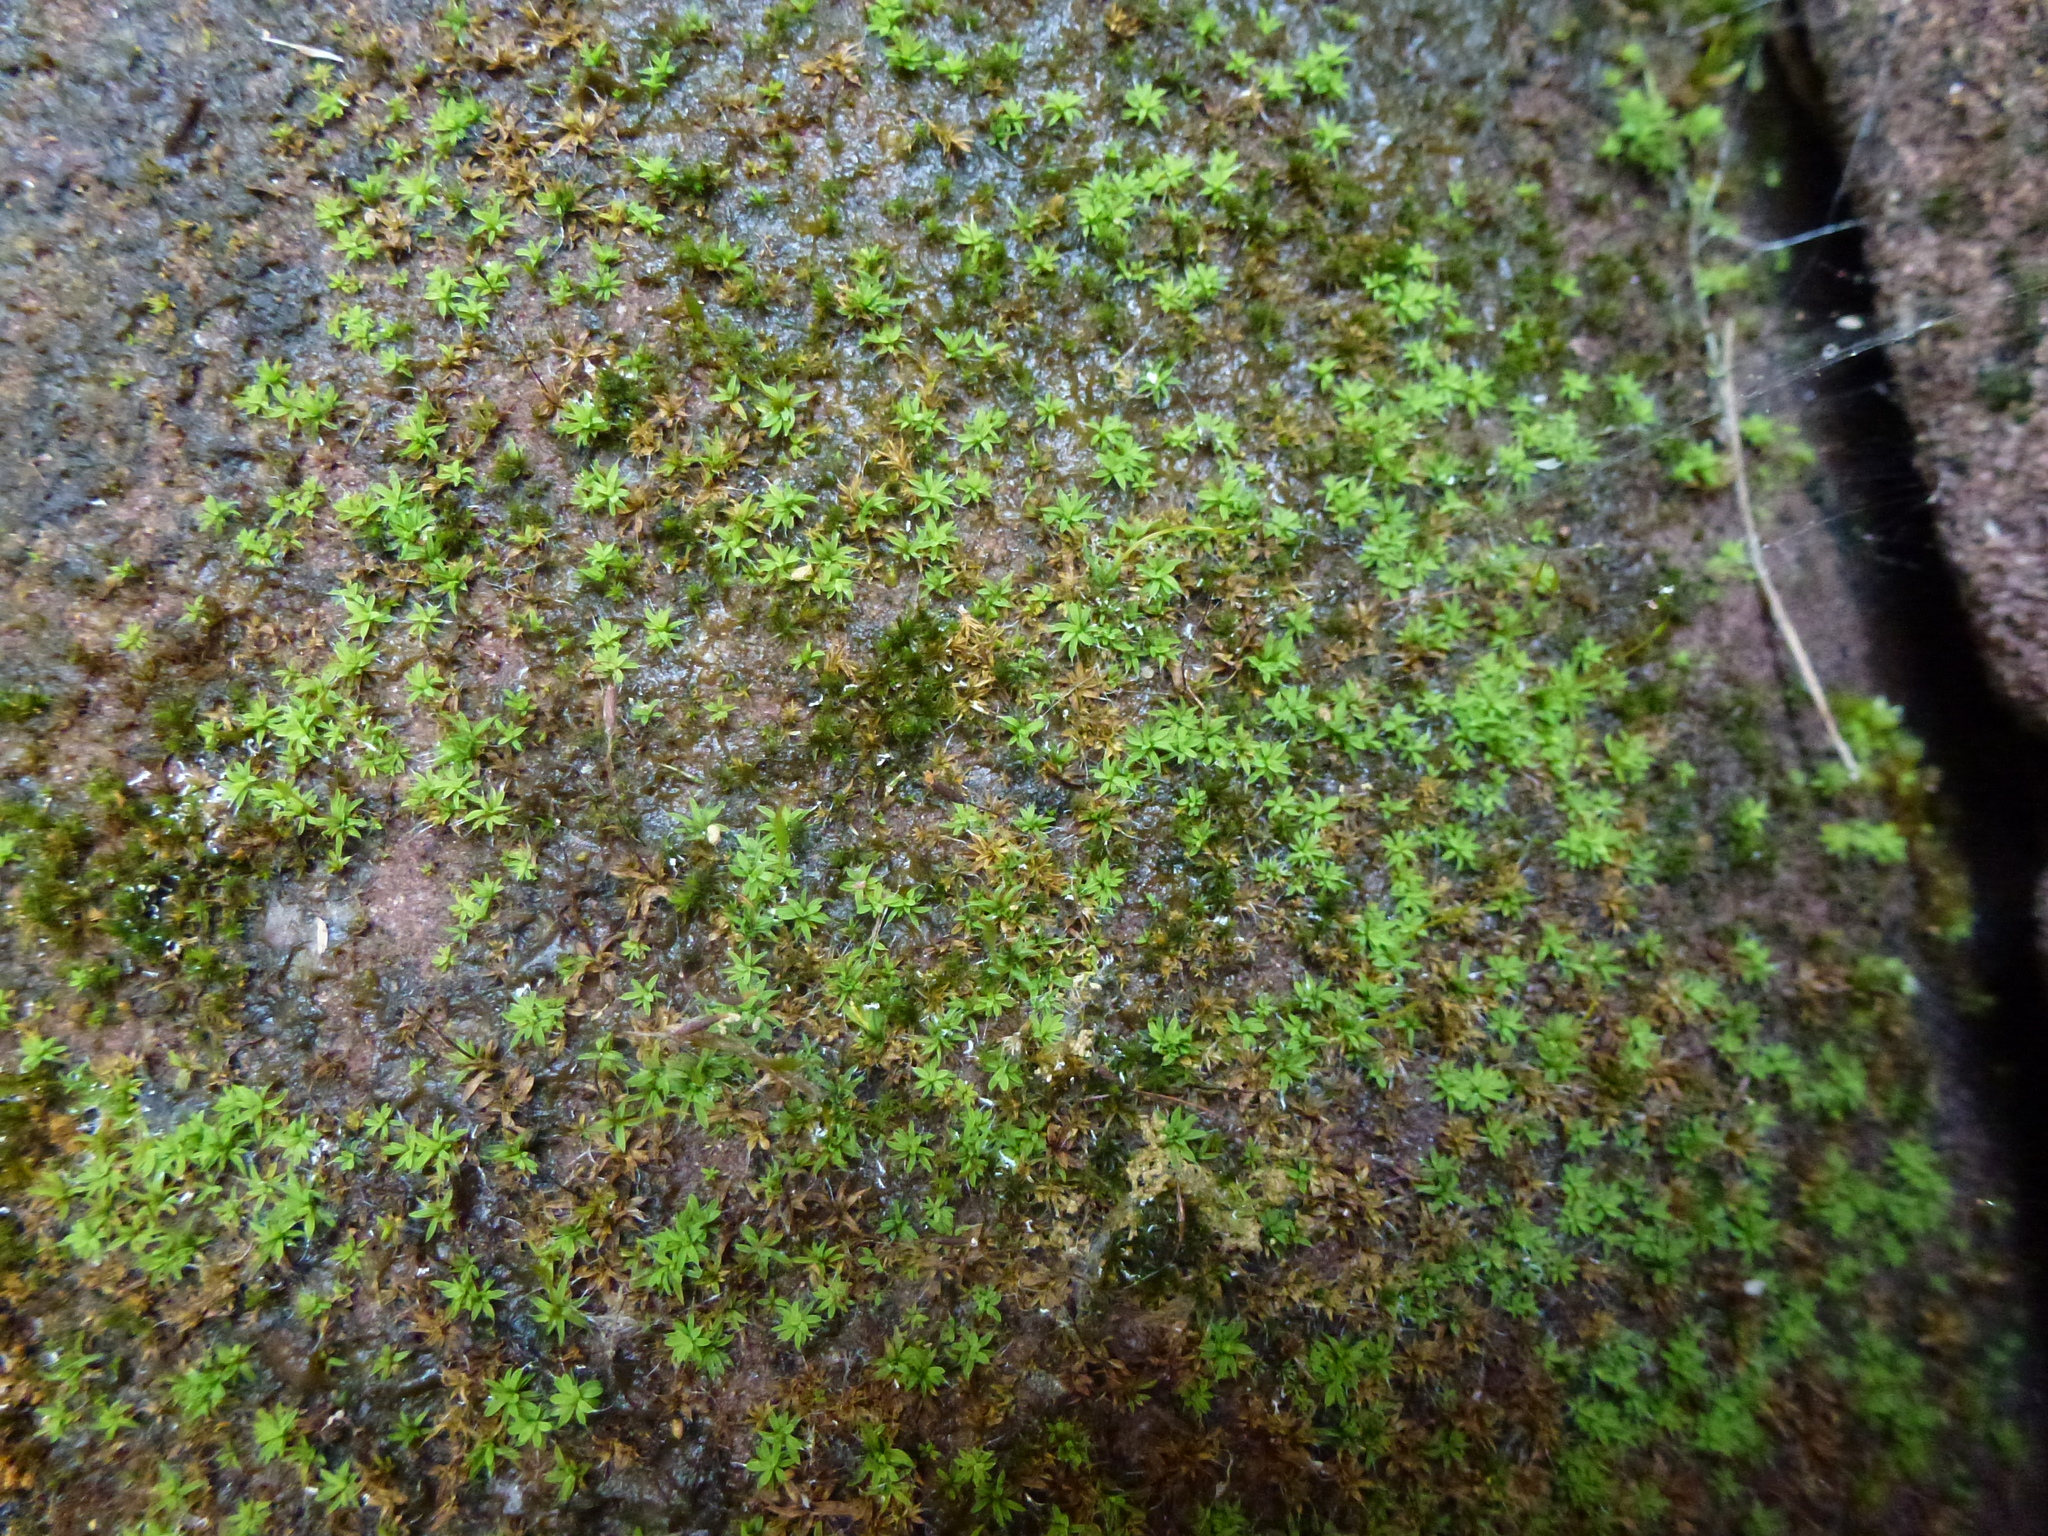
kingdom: Plantae
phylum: Bryophyta
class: Bryopsida
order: Pottiales
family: Pottiaceae
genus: Tortula
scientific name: Tortula muralis
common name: Wall screw-moss
